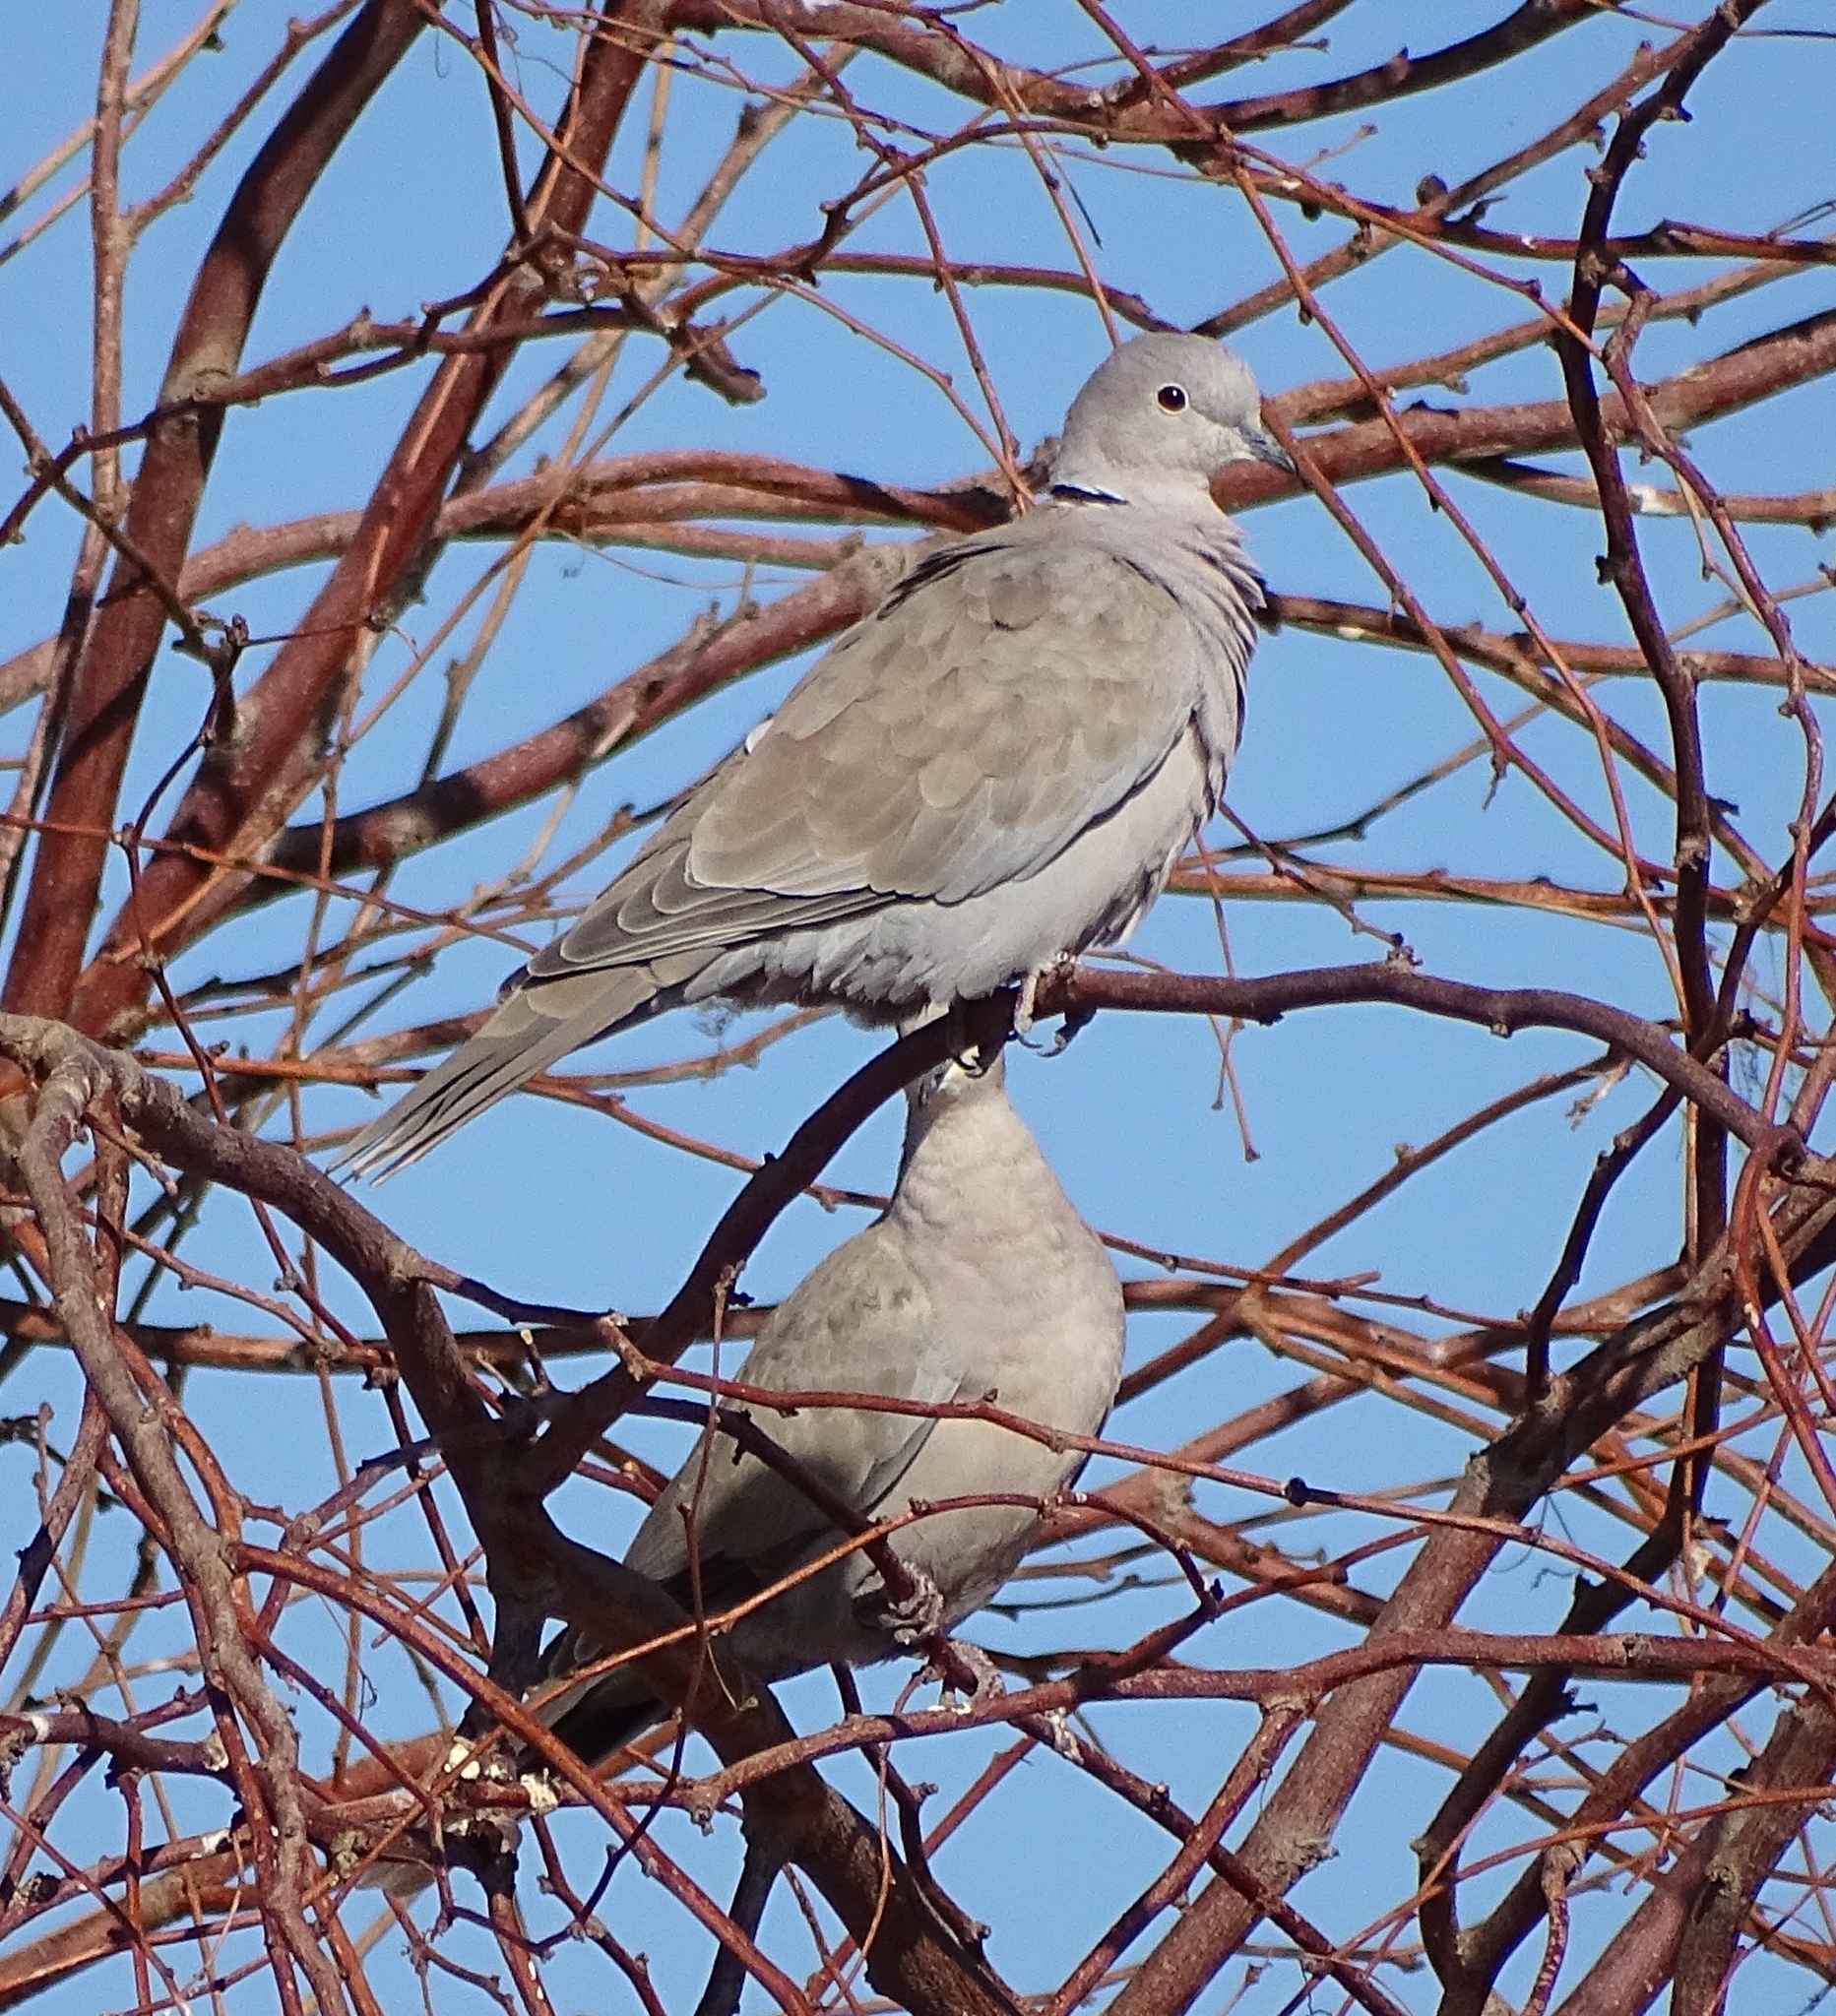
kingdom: Animalia
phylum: Chordata
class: Aves
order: Columbiformes
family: Columbidae
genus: Streptopelia
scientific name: Streptopelia decaocto
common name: Eurasian collared dove
